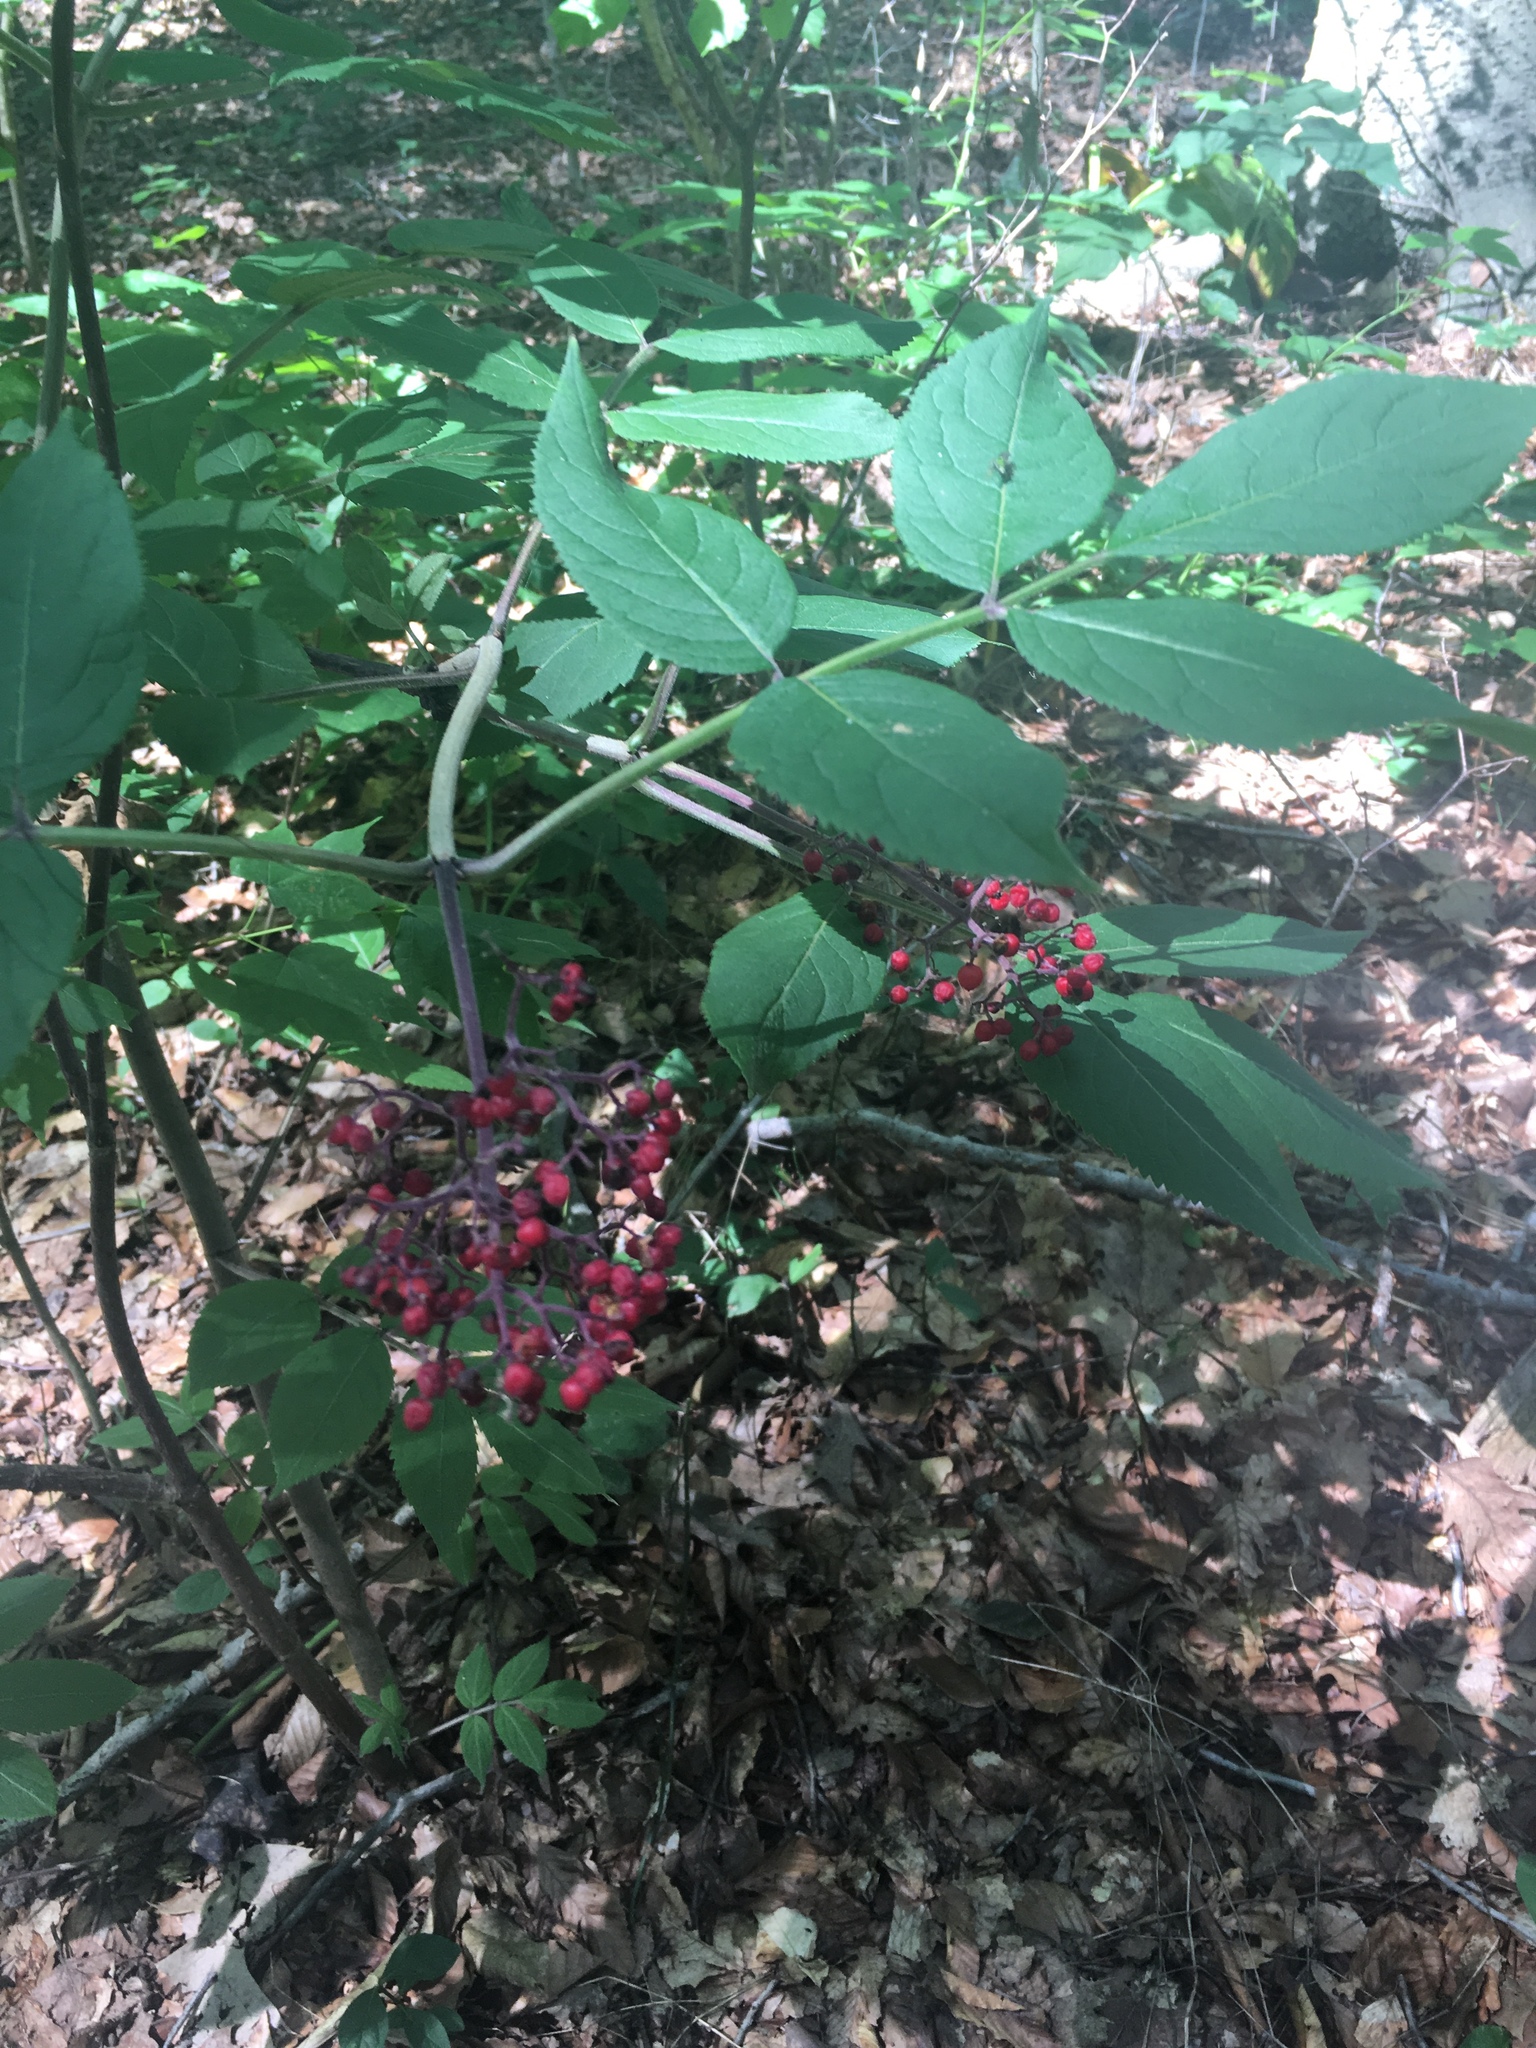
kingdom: Plantae
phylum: Tracheophyta
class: Magnoliopsida
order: Dipsacales
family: Viburnaceae
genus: Sambucus
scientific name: Sambucus racemosa
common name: Red-berried elder
